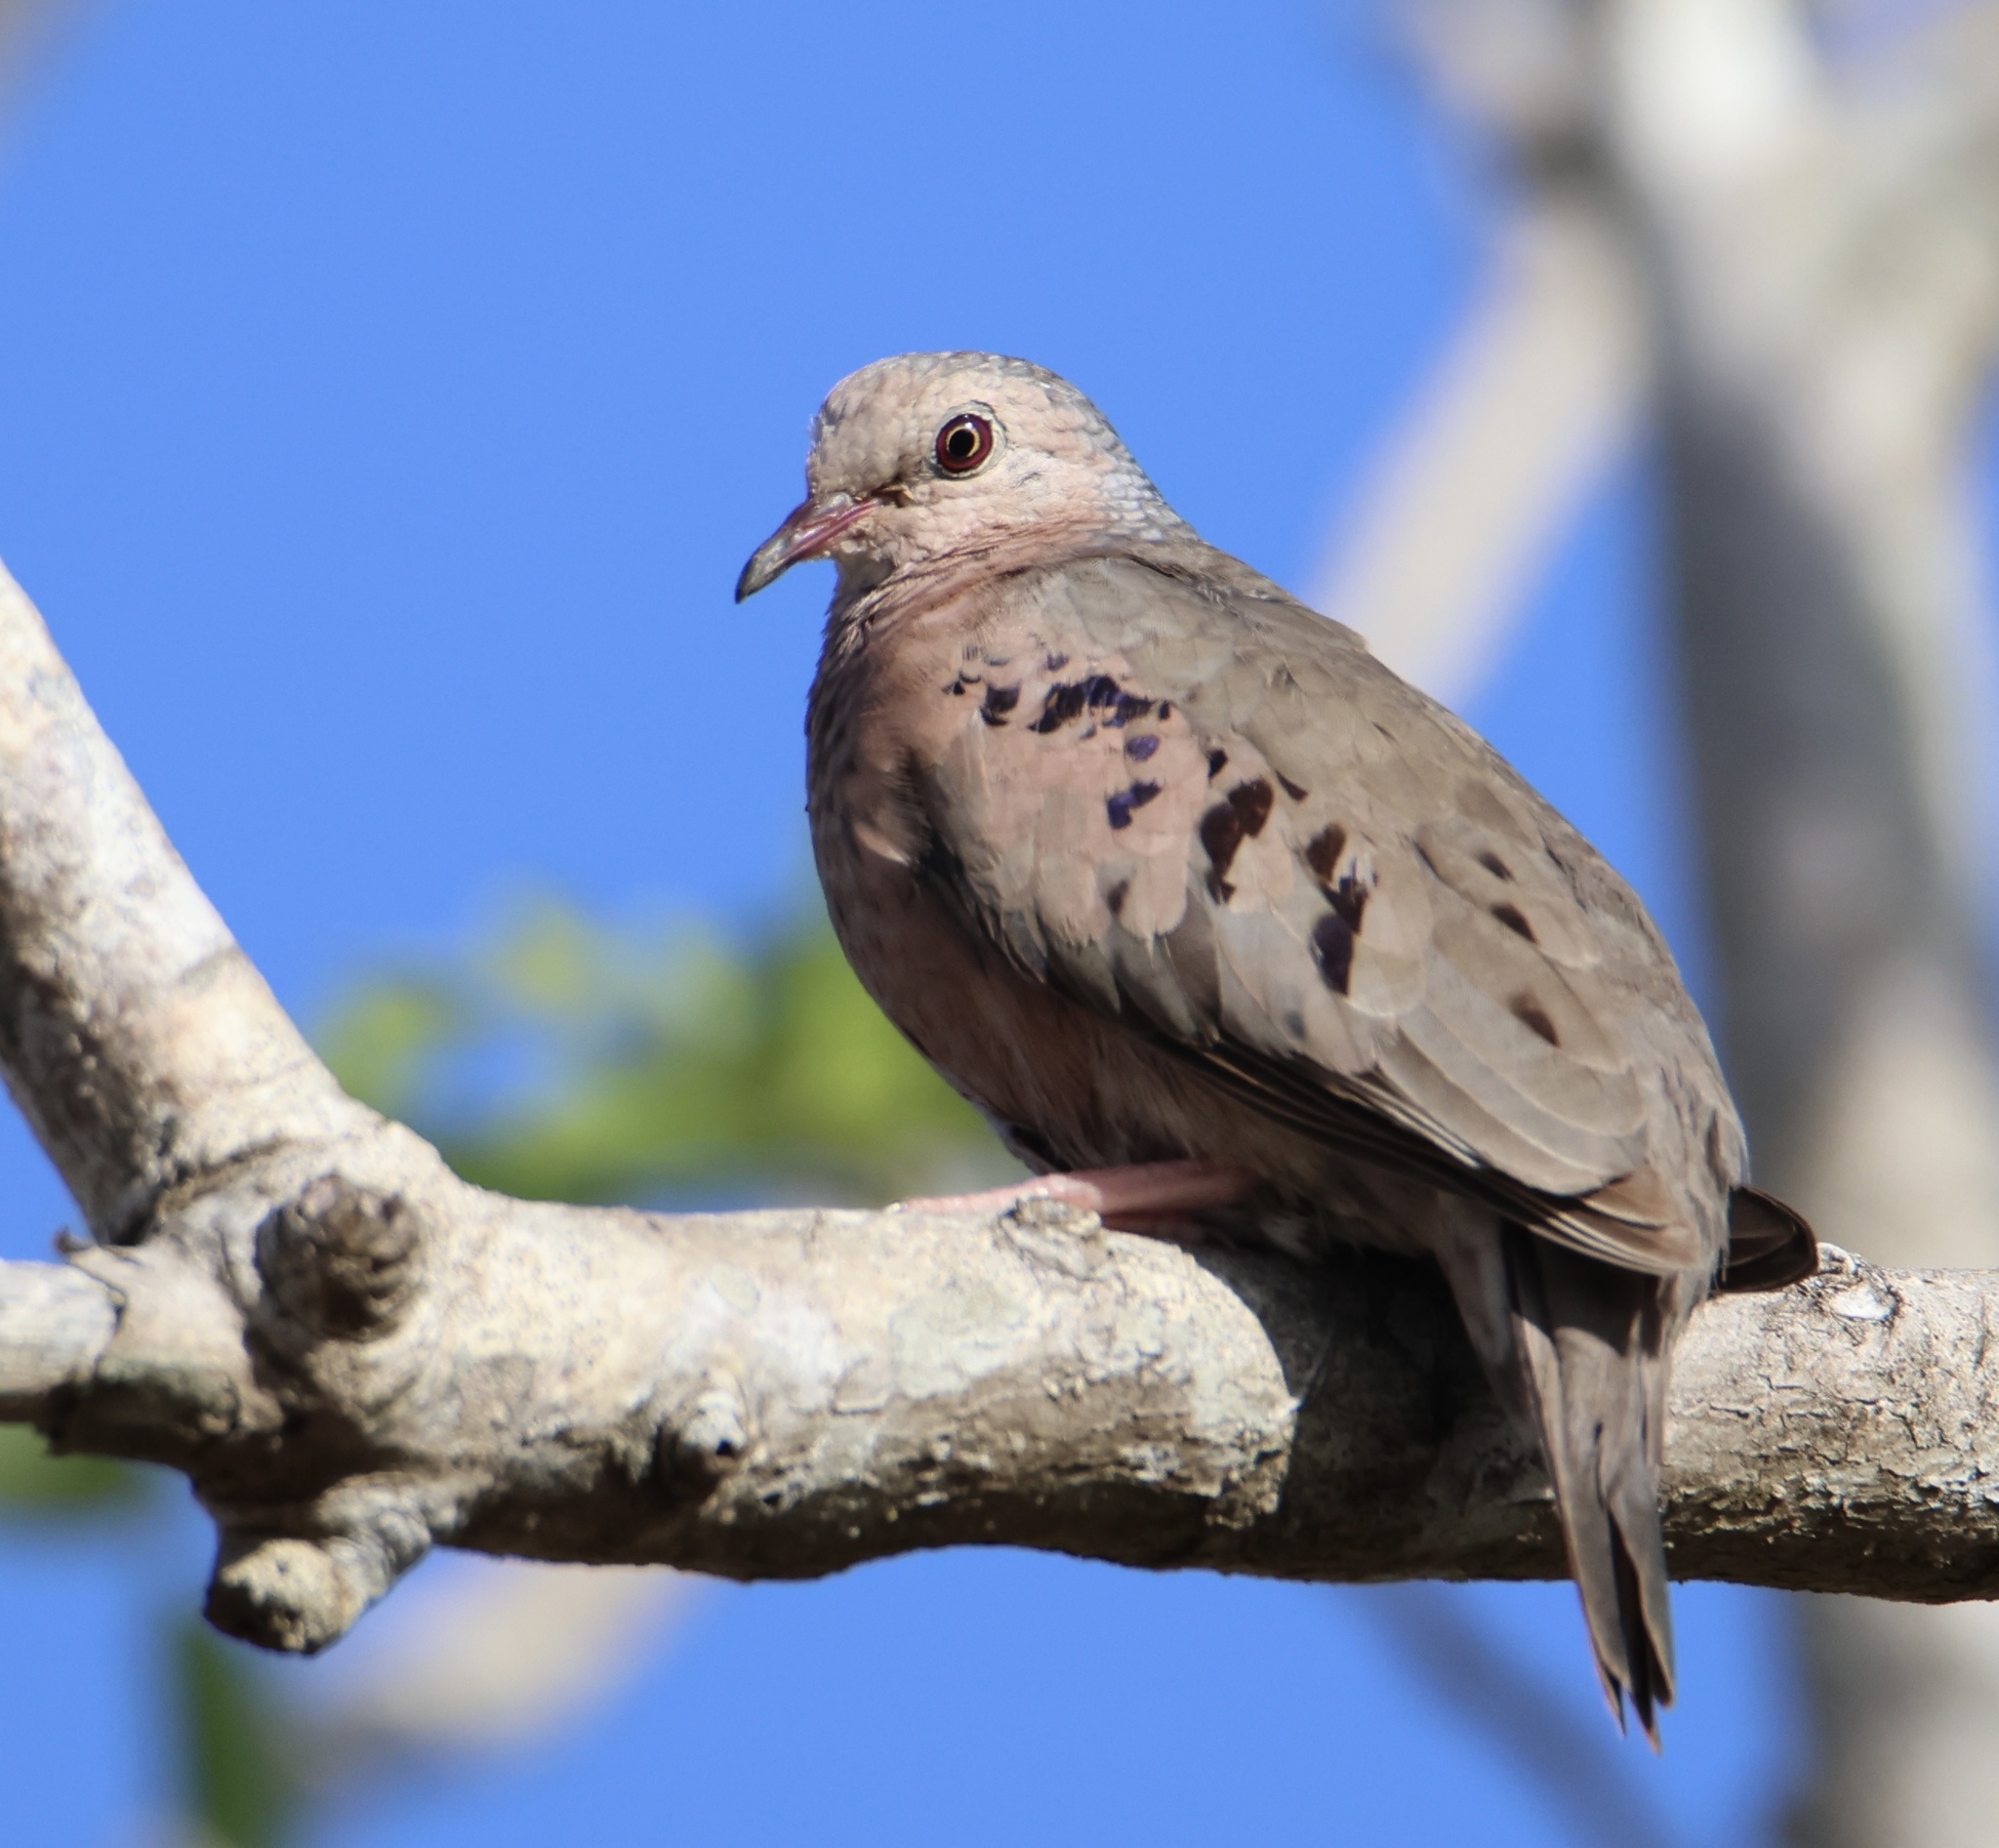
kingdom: Animalia
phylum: Chordata
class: Aves
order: Columbiformes
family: Columbidae
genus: Columbina
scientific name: Columbina passerina
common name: Common ground-dove
